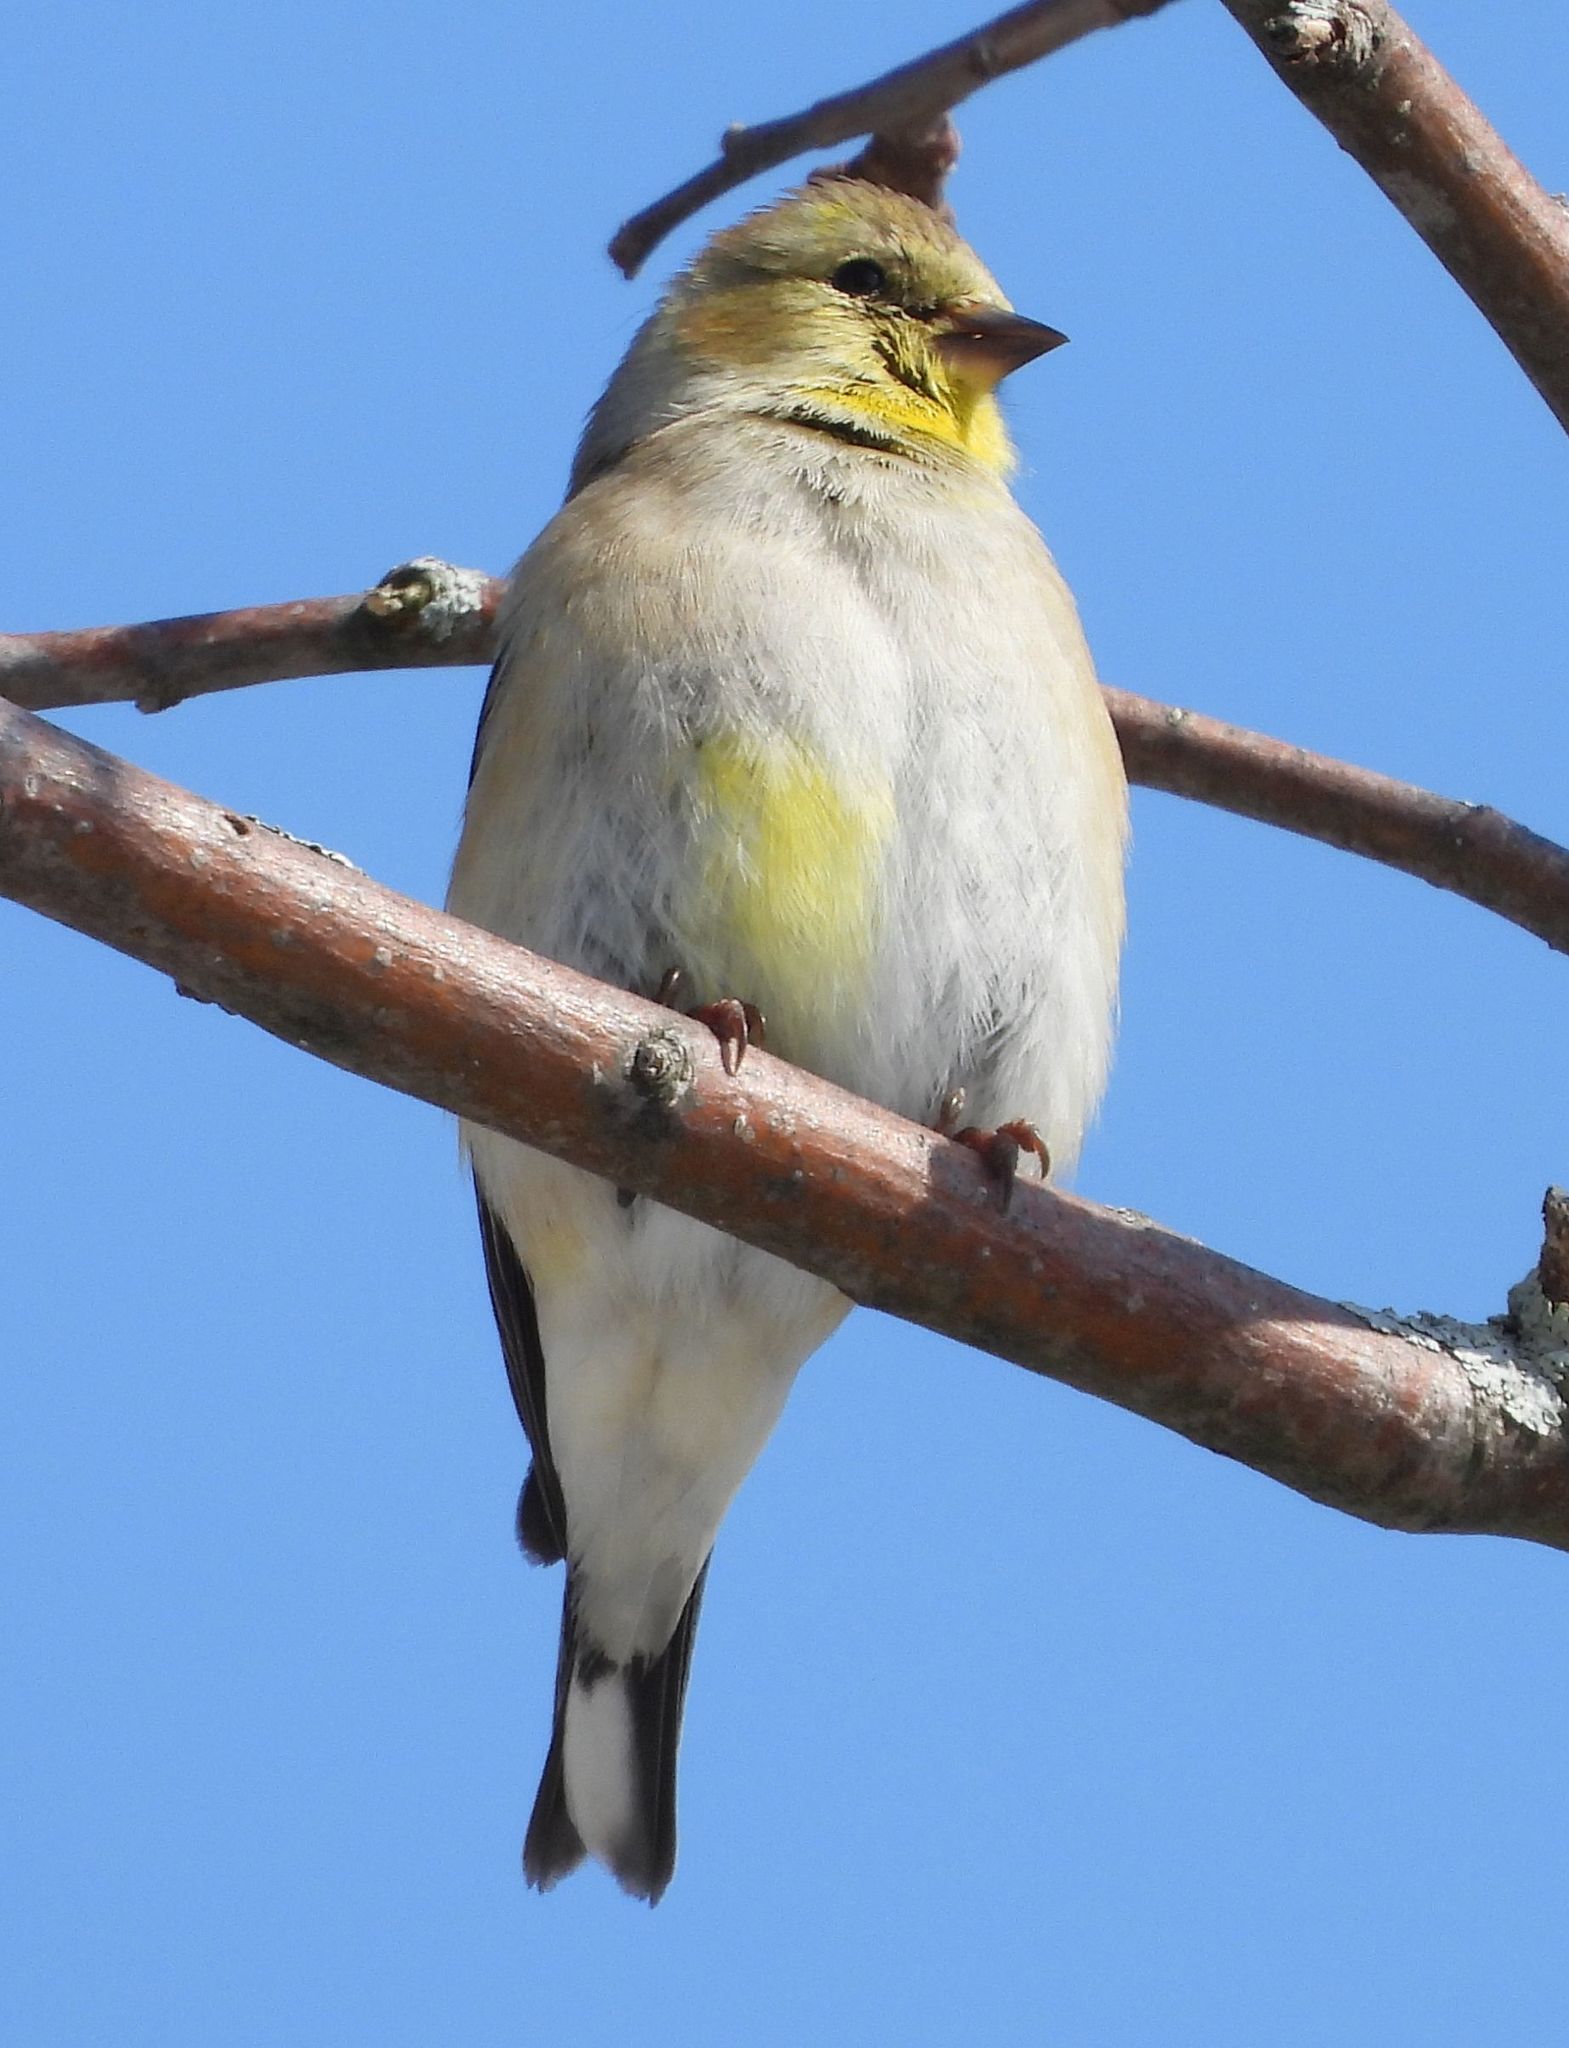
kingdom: Animalia
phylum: Chordata
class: Aves
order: Passeriformes
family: Fringillidae
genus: Spinus
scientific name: Spinus tristis
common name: American goldfinch
